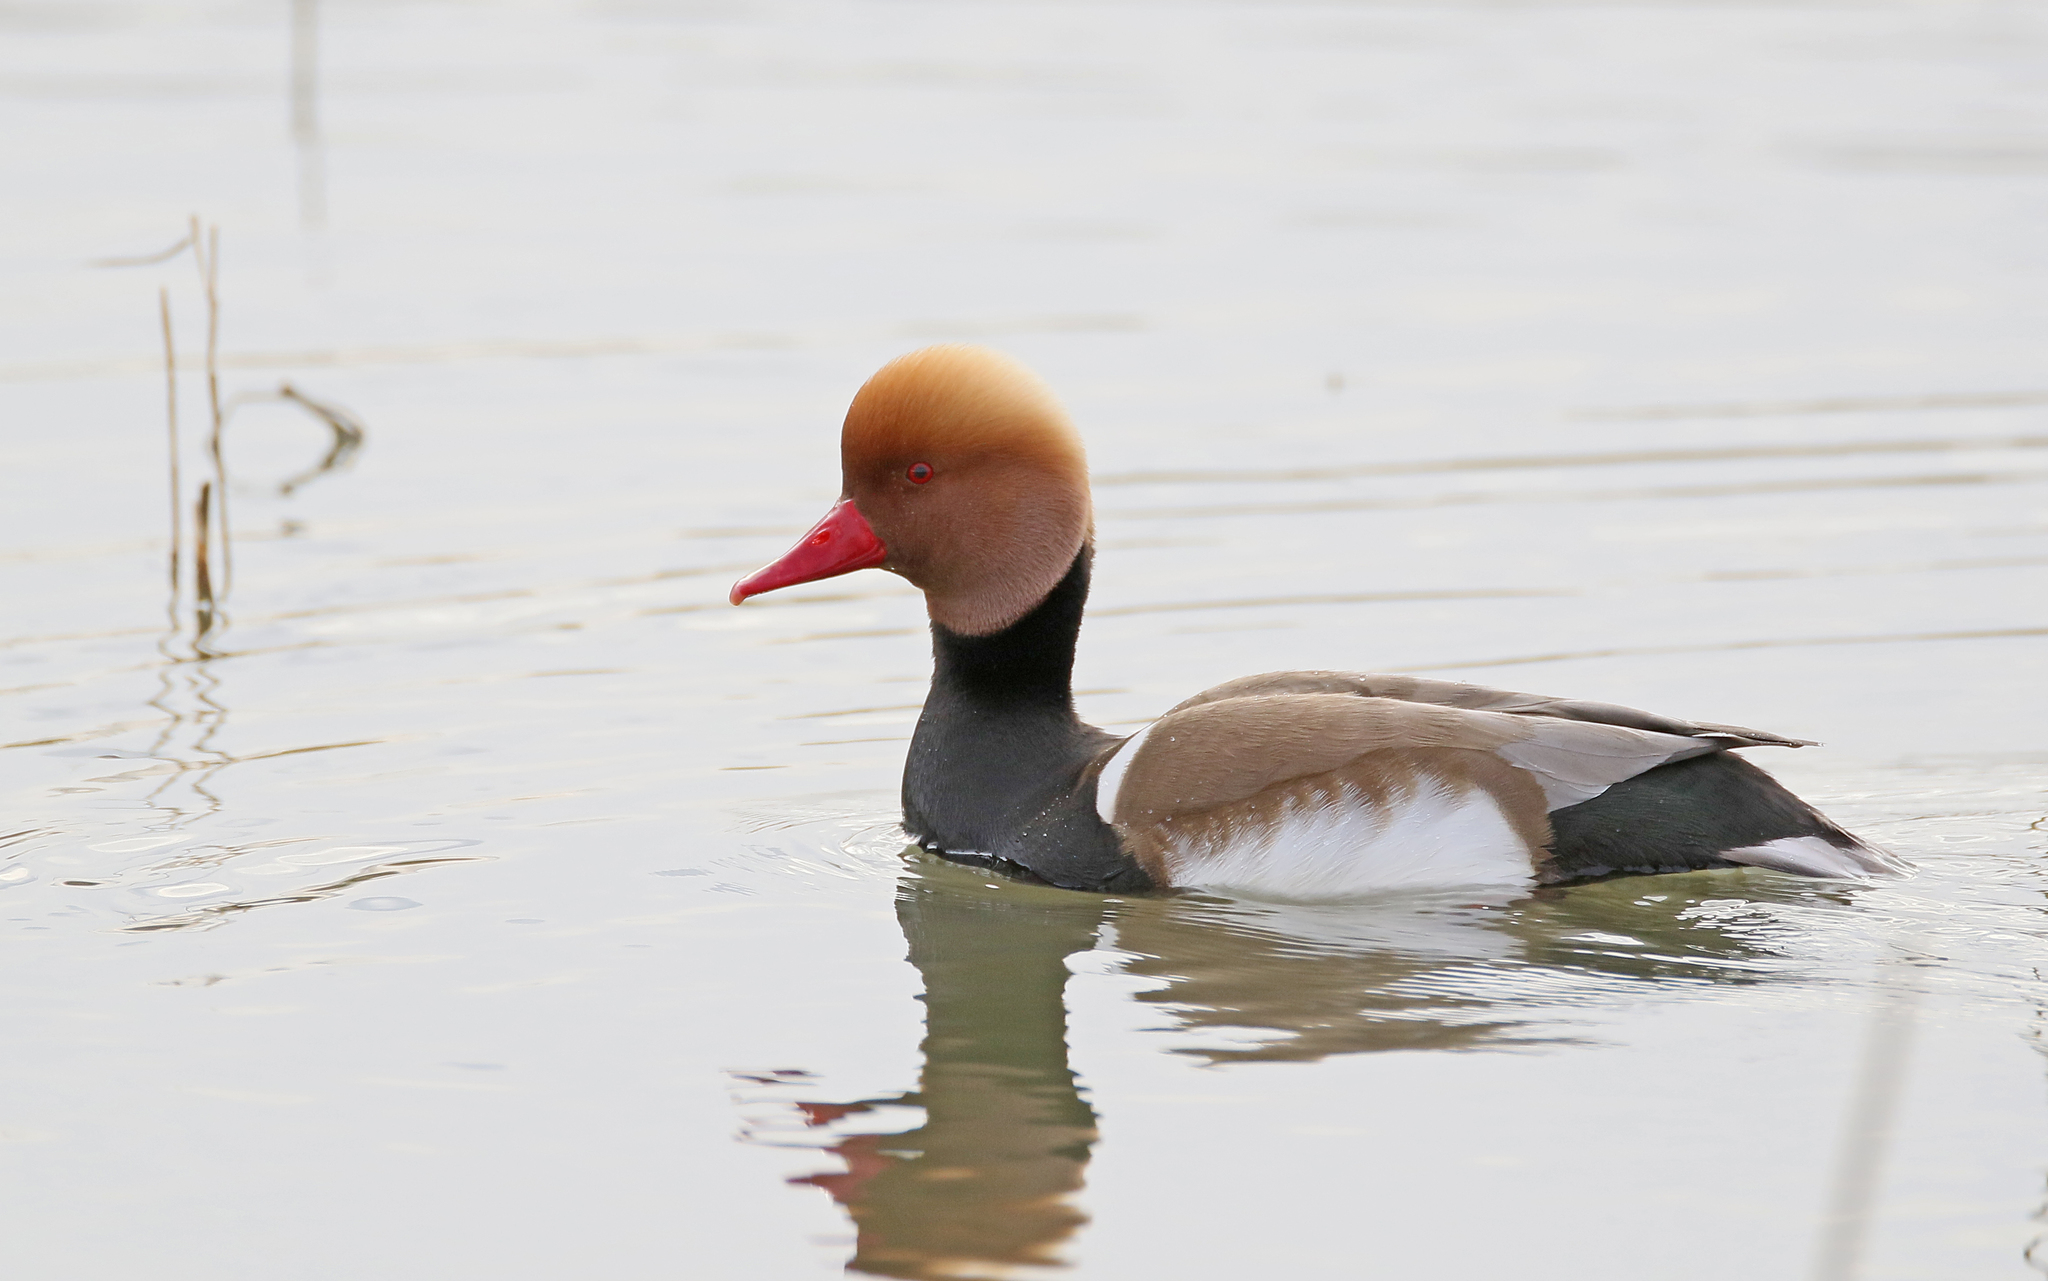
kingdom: Animalia
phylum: Chordata
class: Aves
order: Anseriformes
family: Anatidae
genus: Netta
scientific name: Netta rufina
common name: Red-crested pochard
